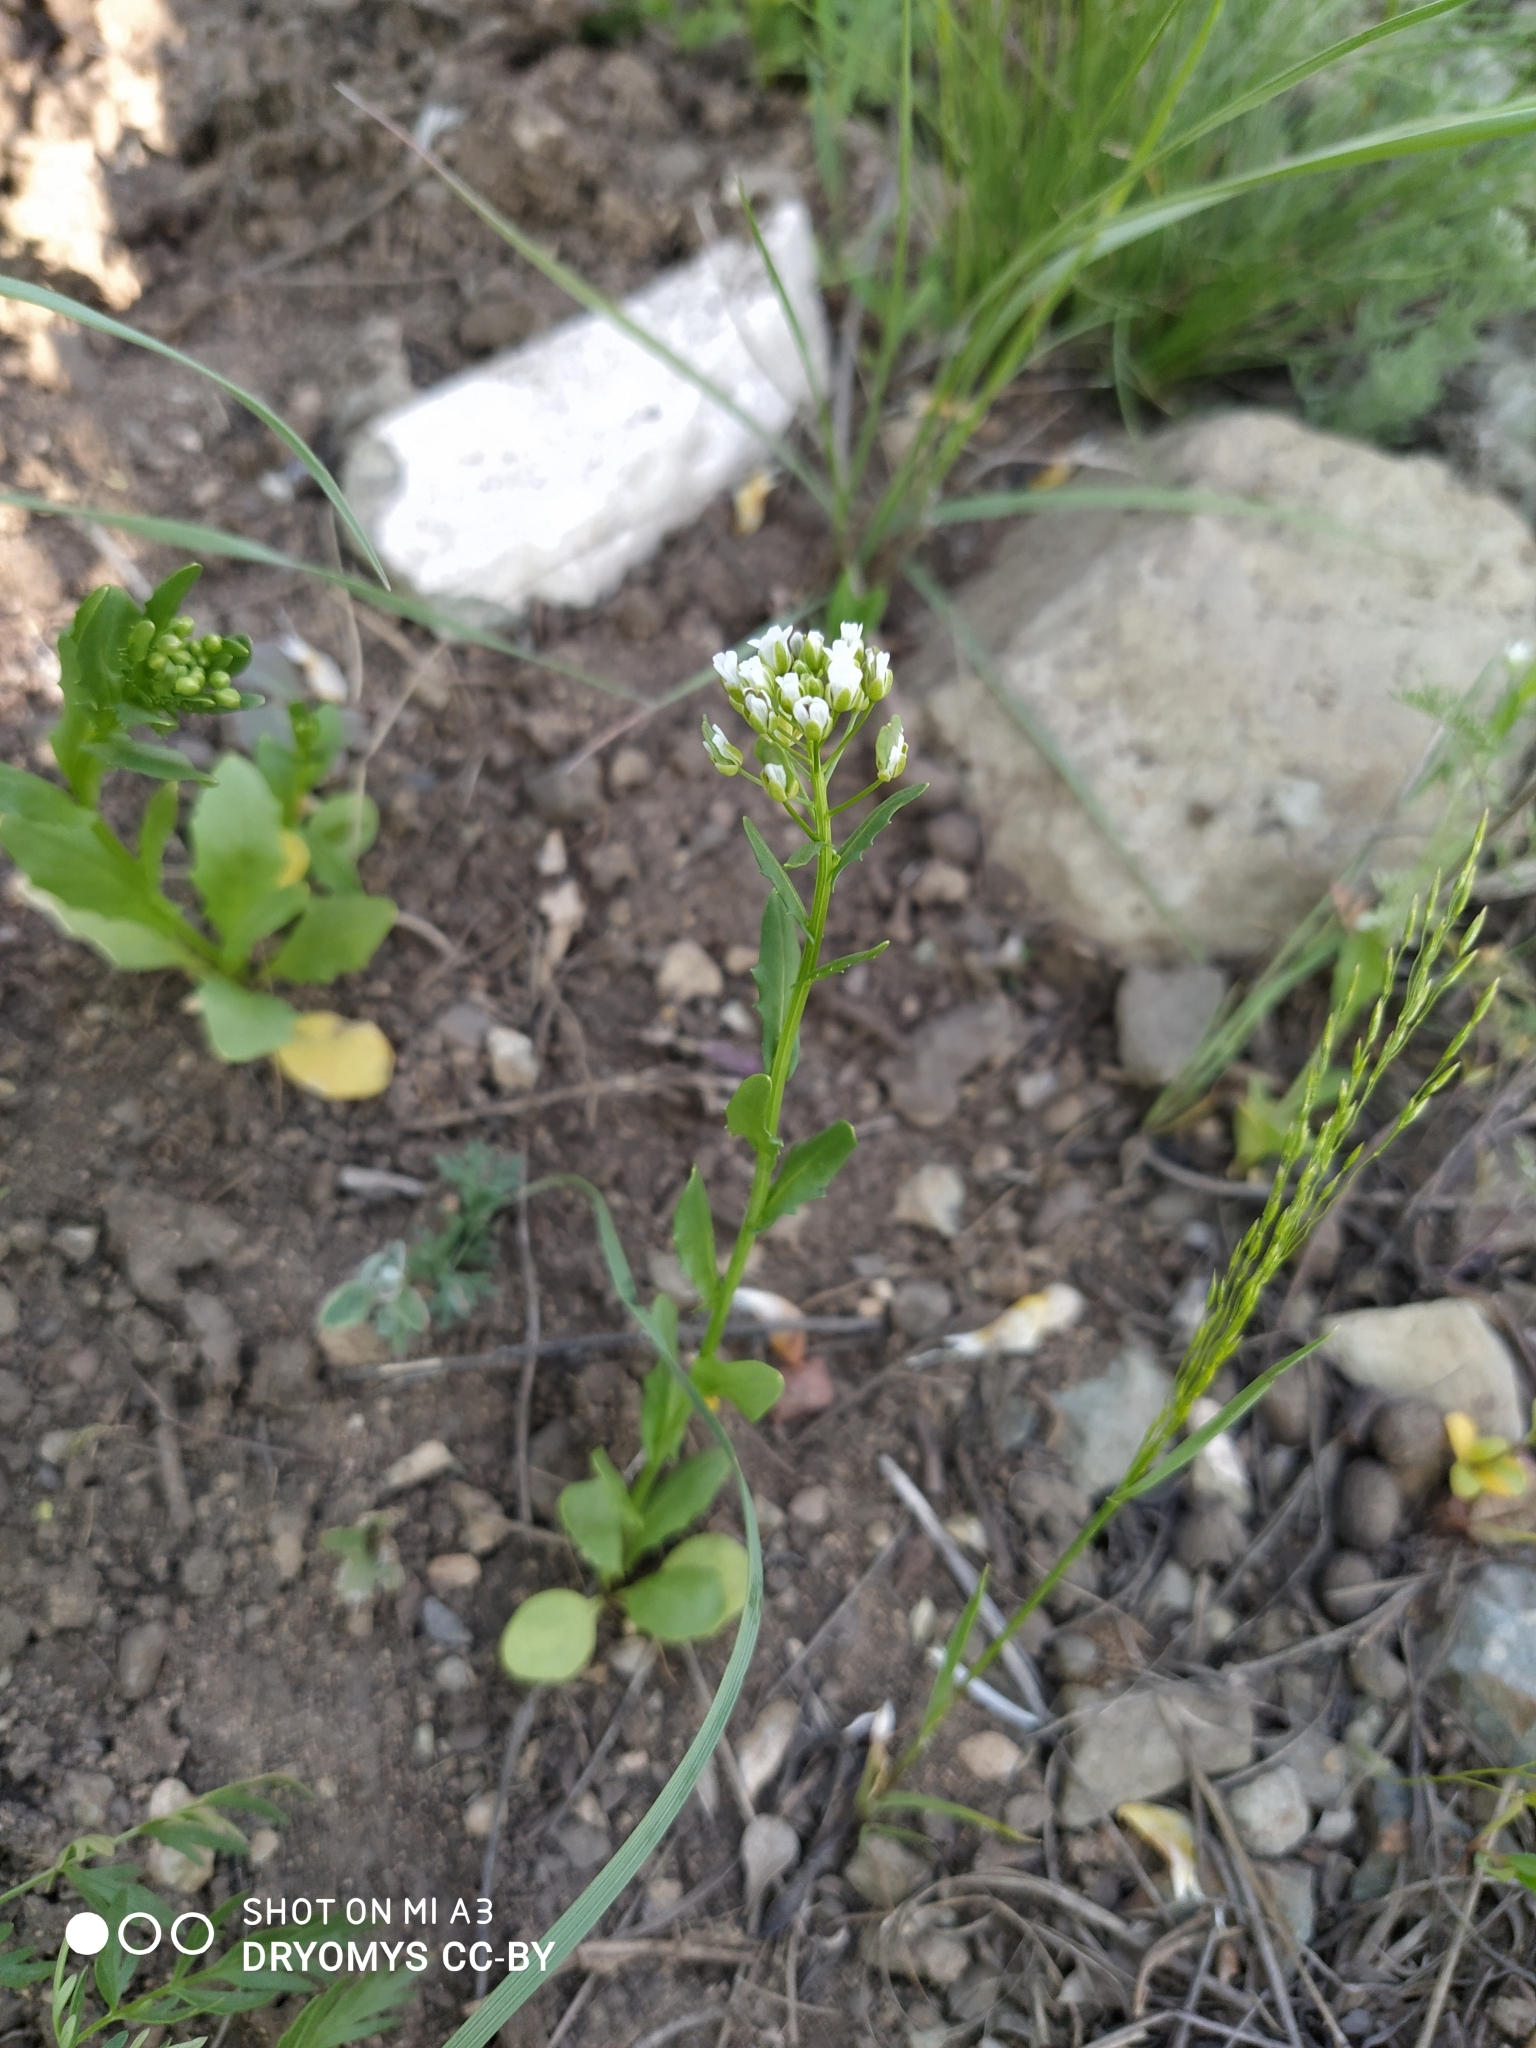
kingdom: Plantae
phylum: Tracheophyta
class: Magnoliopsida
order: Brassicales
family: Brassicaceae
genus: Thlaspi
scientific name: Thlaspi arvense
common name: Field pennycress
